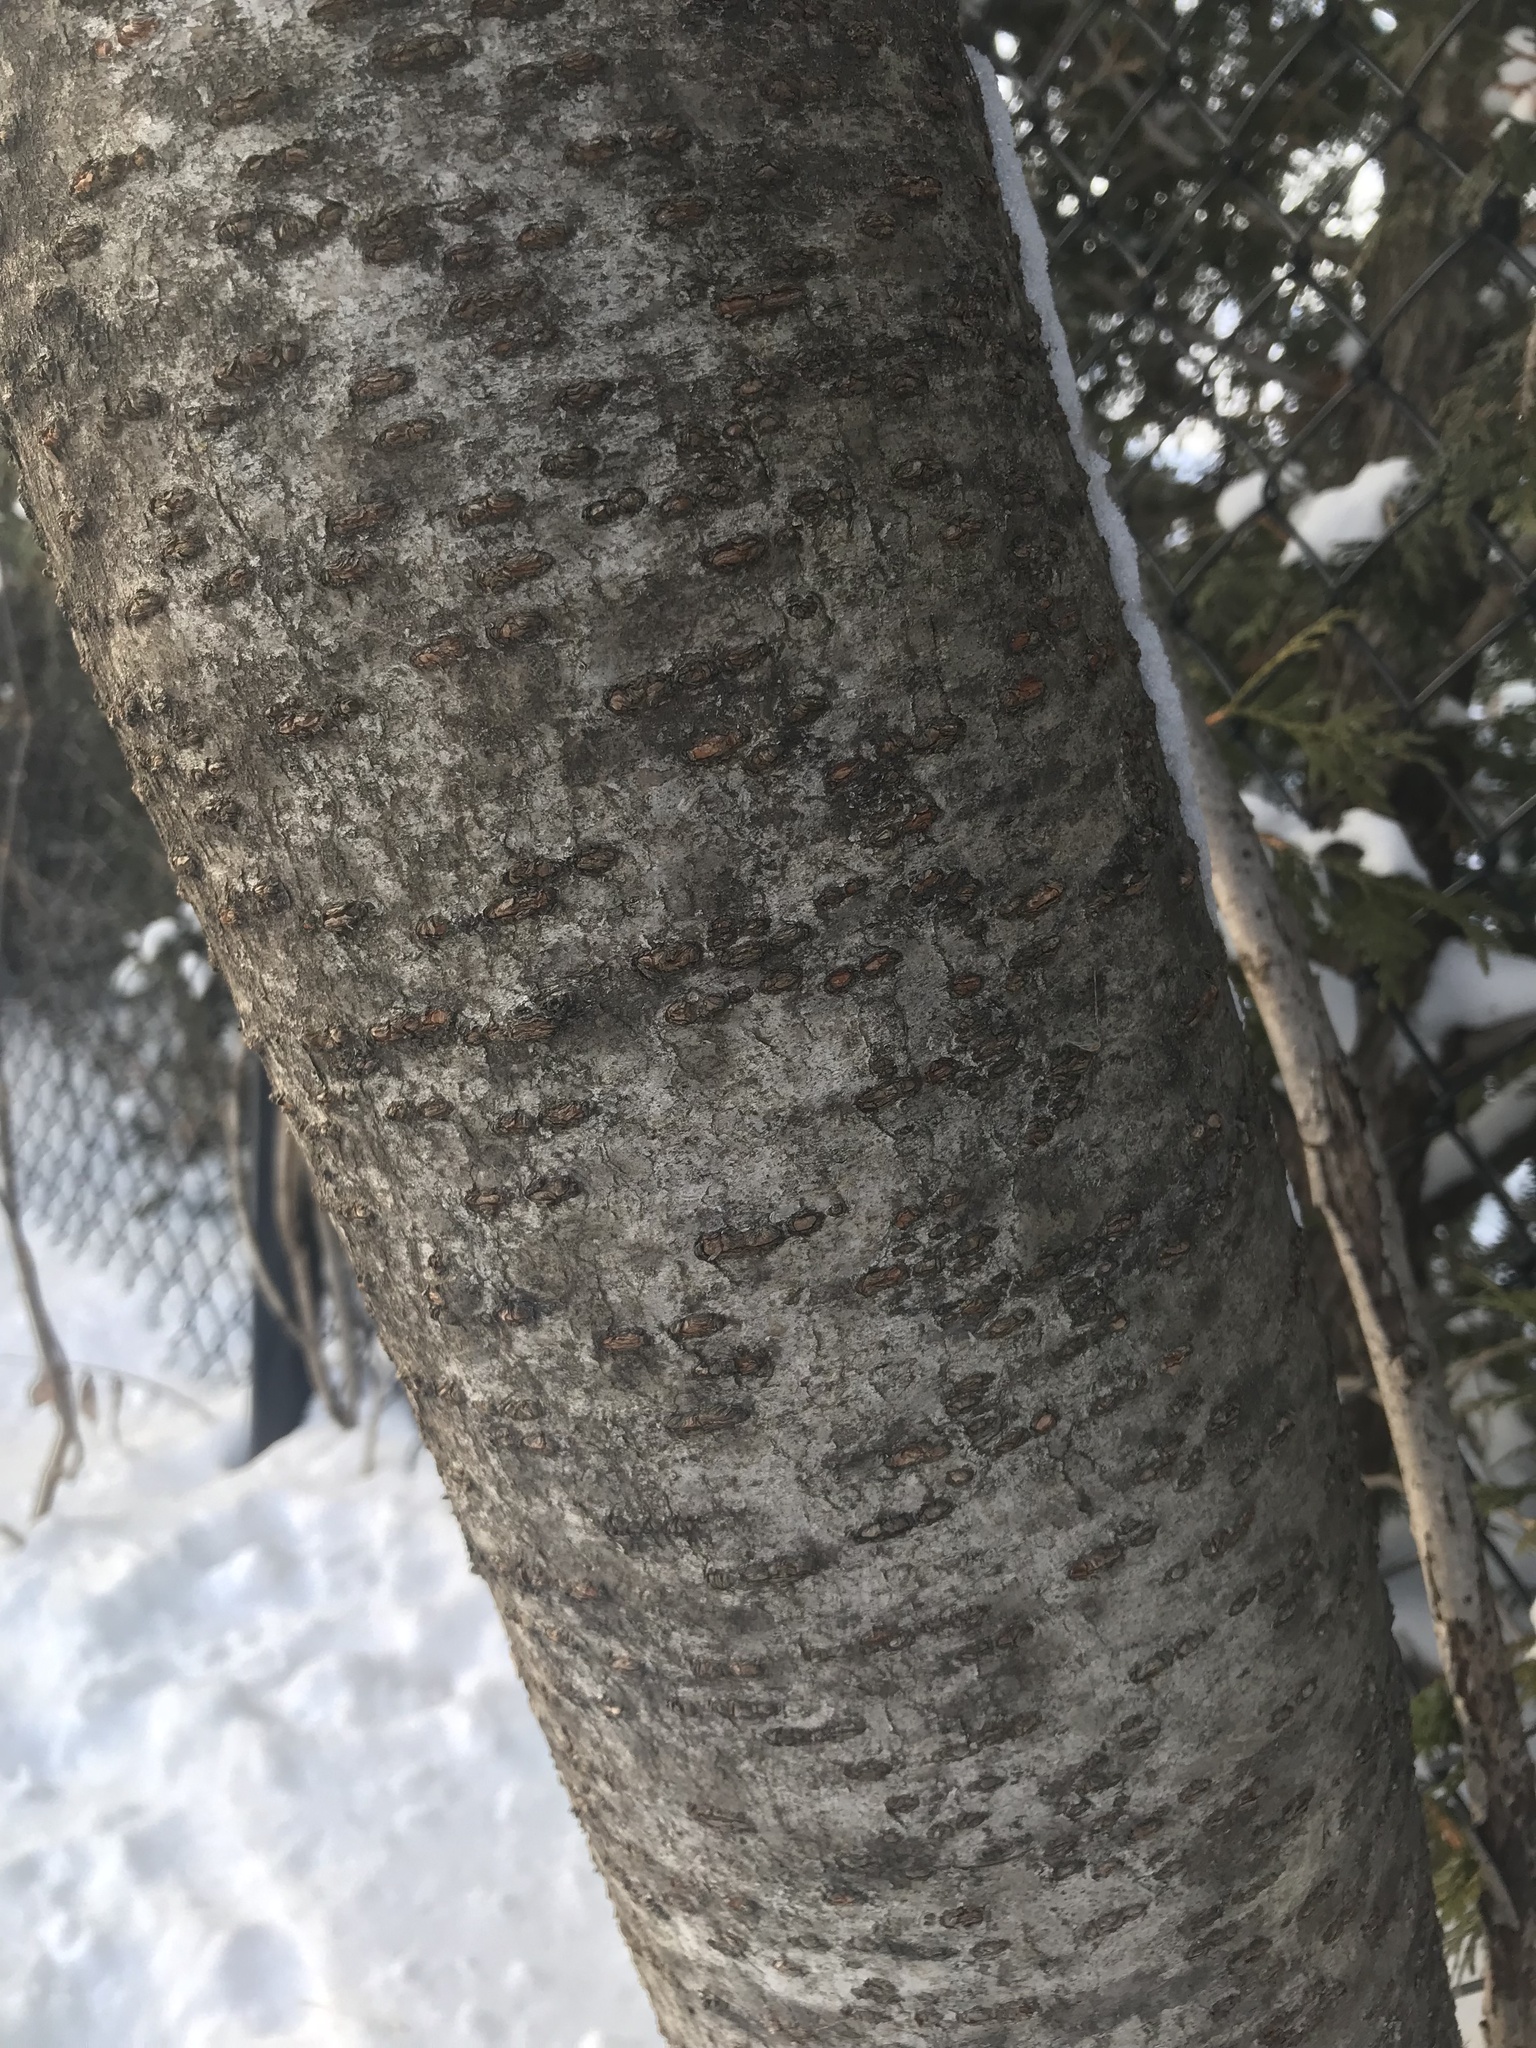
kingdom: Plantae
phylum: Tracheophyta
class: Magnoliopsida
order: Sapindales
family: Anacardiaceae
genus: Rhus
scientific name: Rhus typhina
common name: Staghorn sumac
